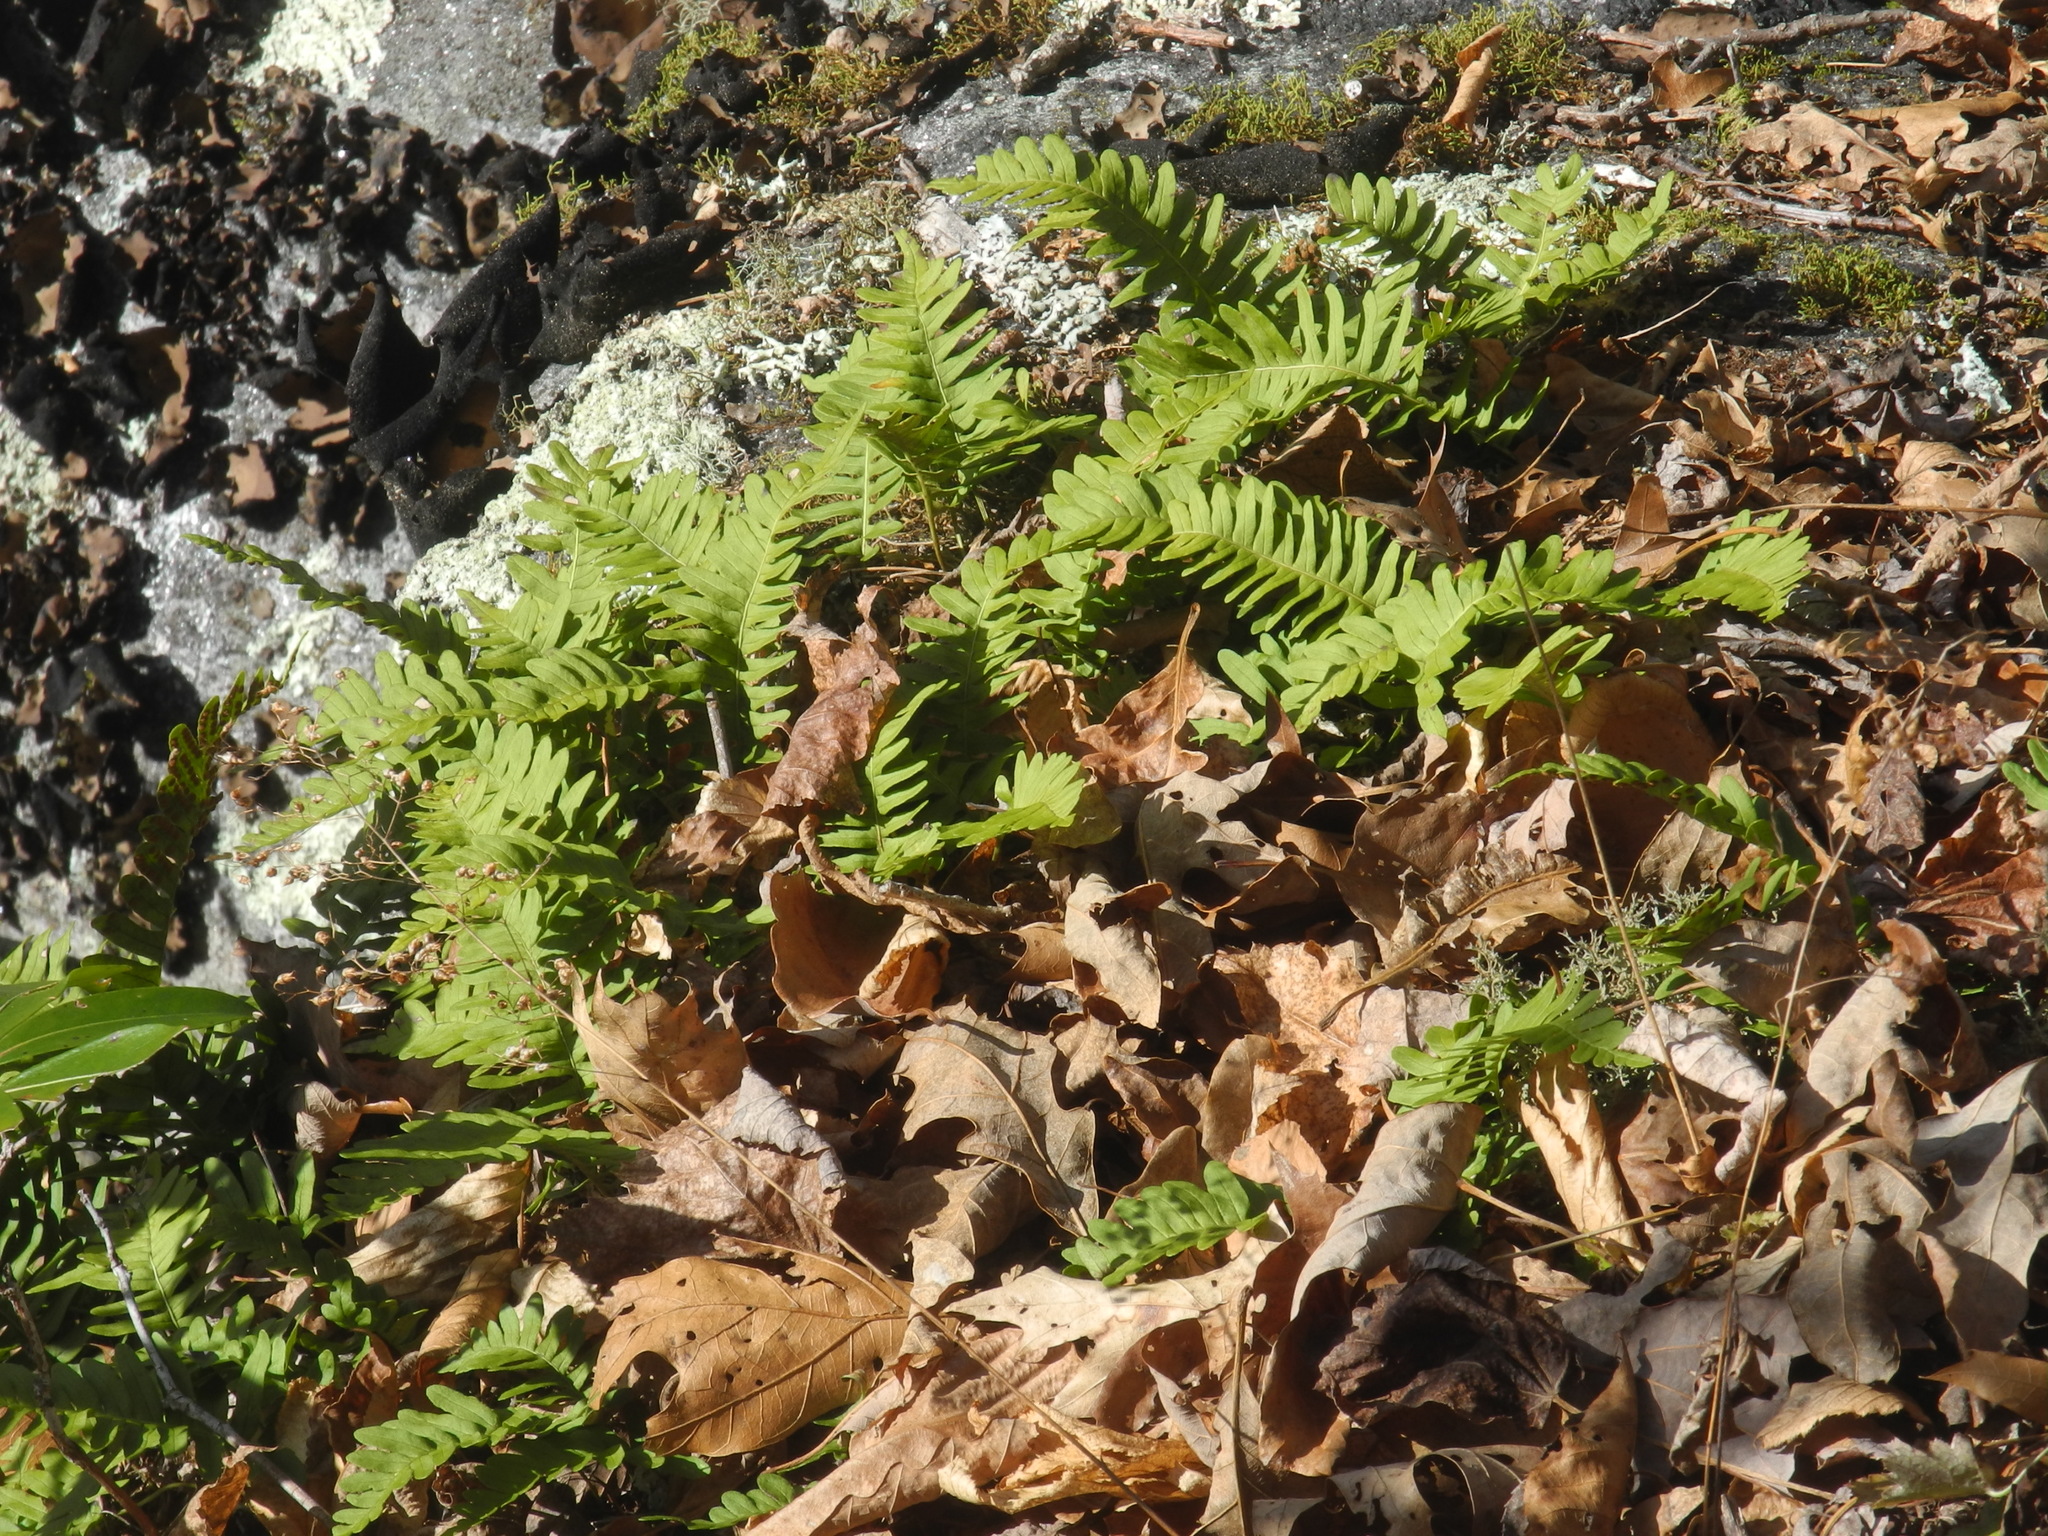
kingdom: Plantae
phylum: Tracheophyta
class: Polypodiopsida
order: Polypodiales
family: Polypodiaceae
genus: Polypodium
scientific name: Polypodium virginianum
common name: American wall fern
